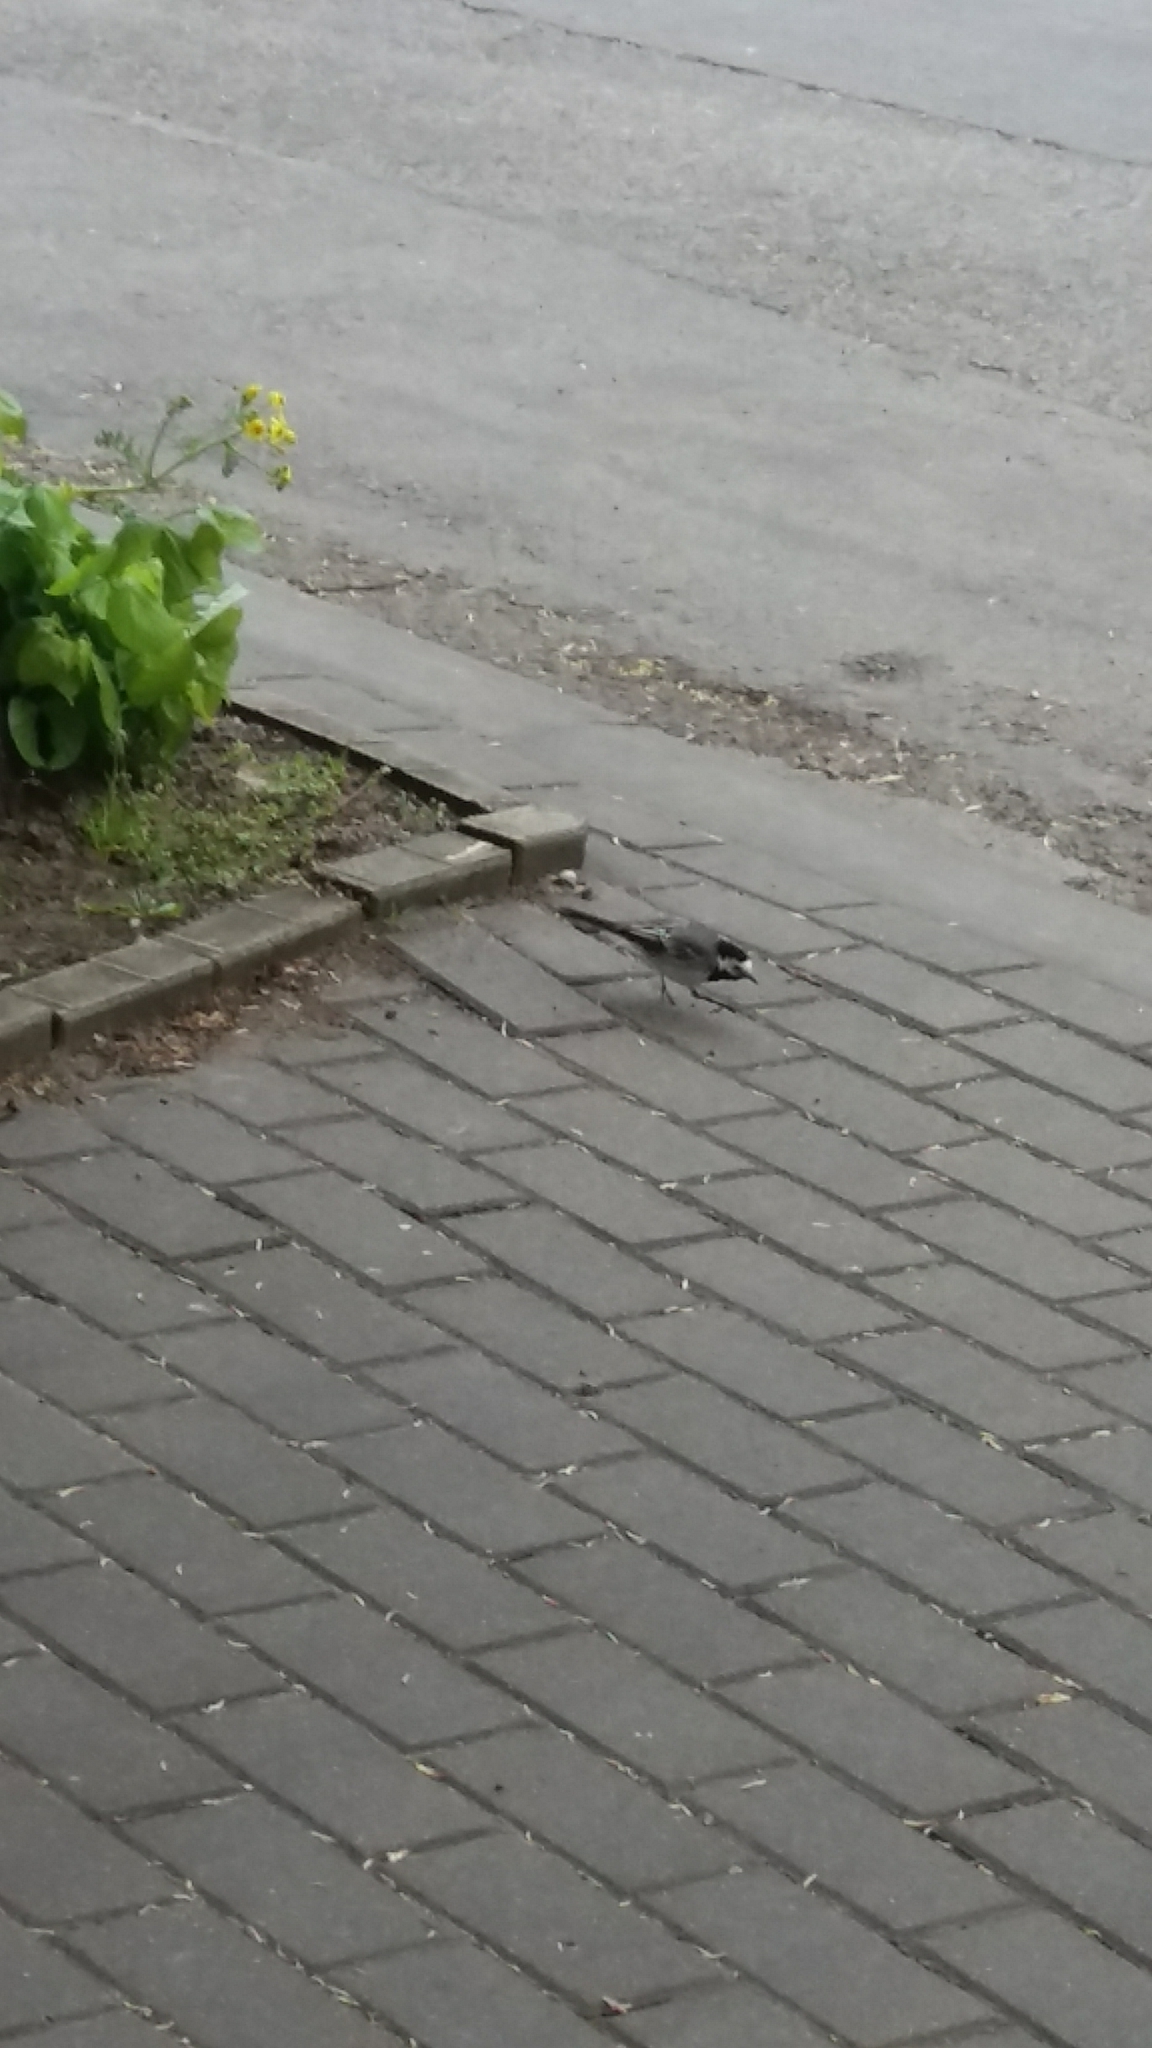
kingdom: Animalia
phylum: Chordata
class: Aves
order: Passeriformes
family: Motacillidae
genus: Motacilla
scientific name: Motacilla alba
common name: White wagtail
